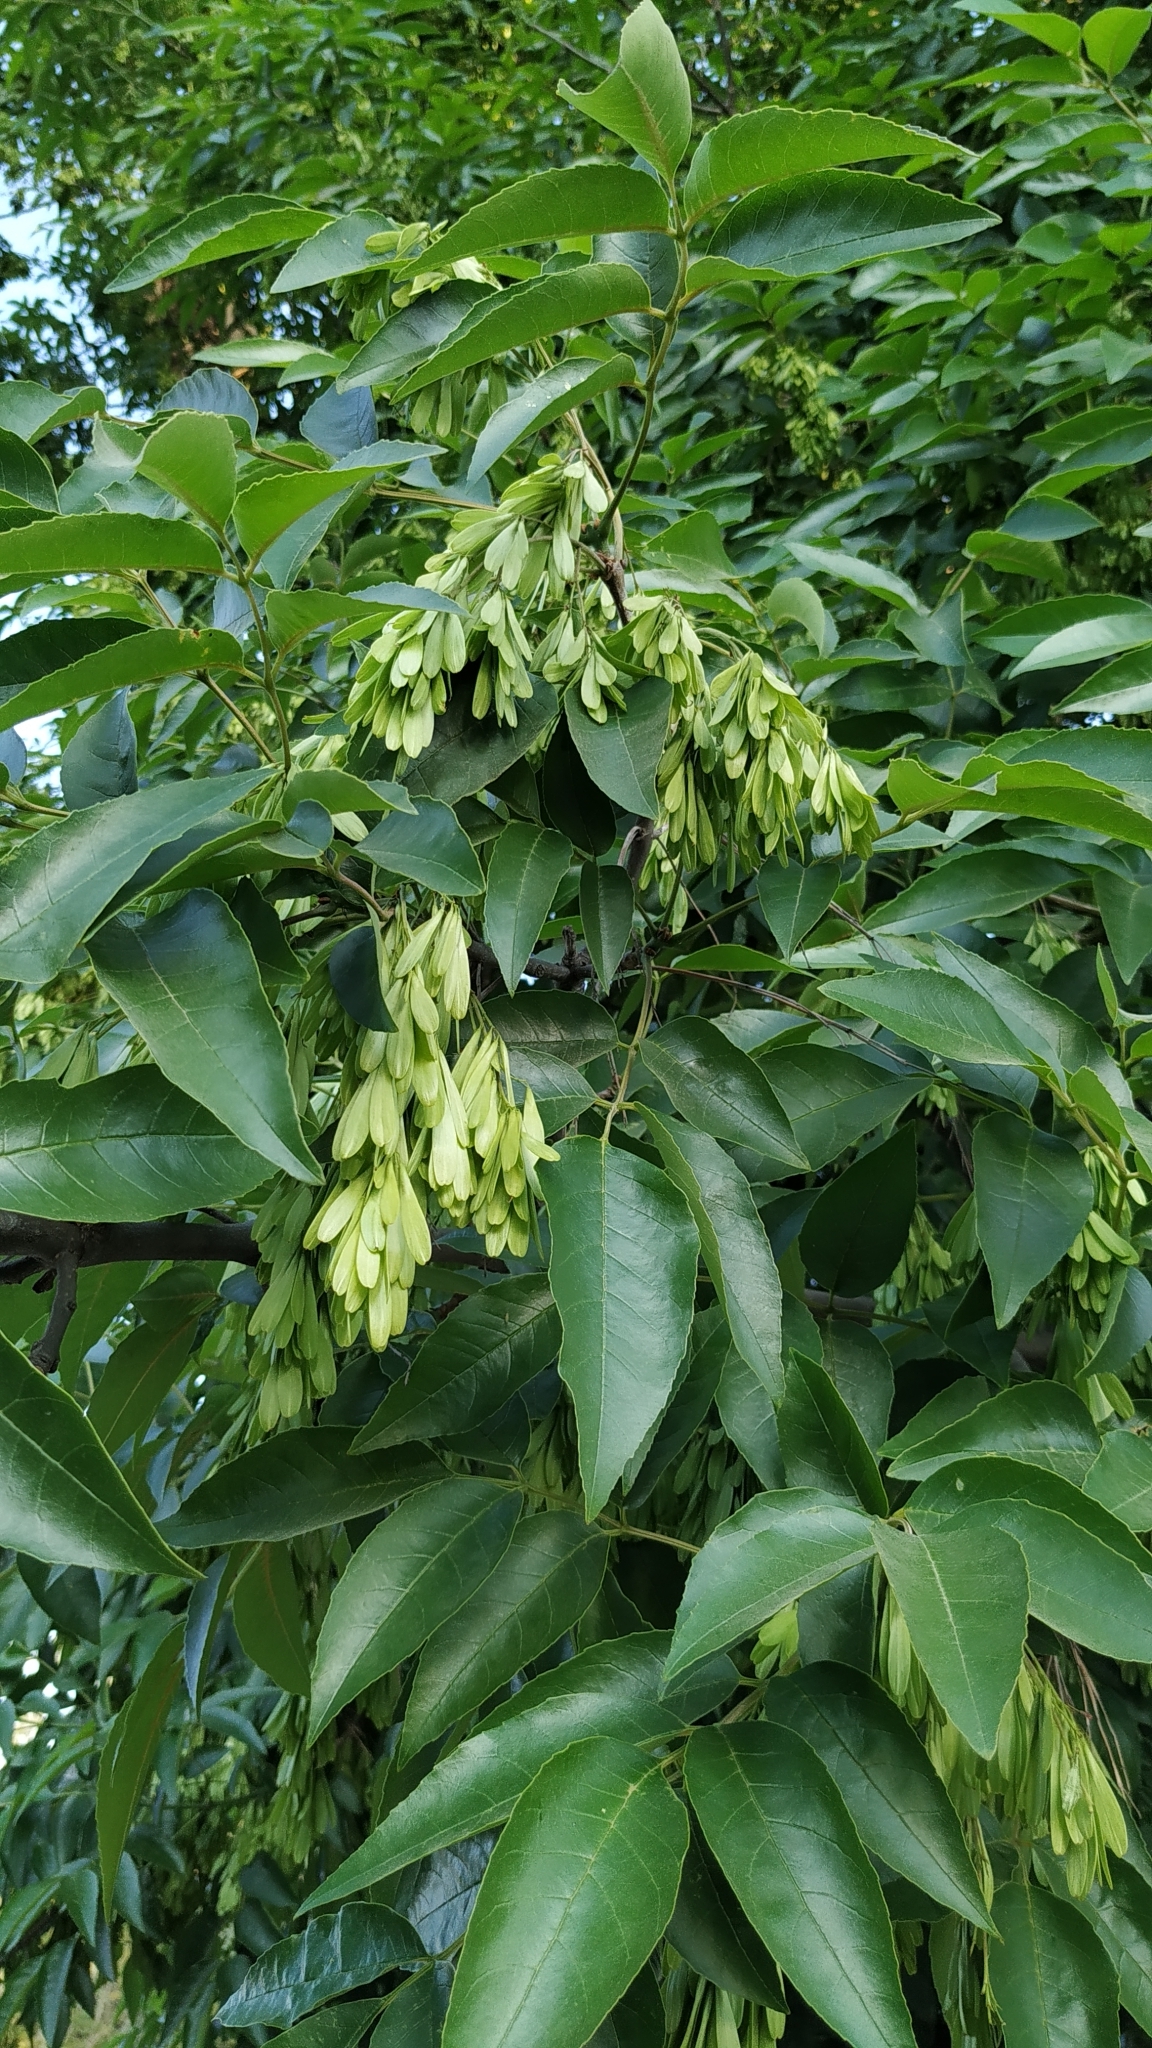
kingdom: Plantae
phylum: Tracheophyta
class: Magnoliopsida
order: Lamiales
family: Oleaceae
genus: Fraxinus
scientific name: Fraxinus uhdei
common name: Shamel ash
